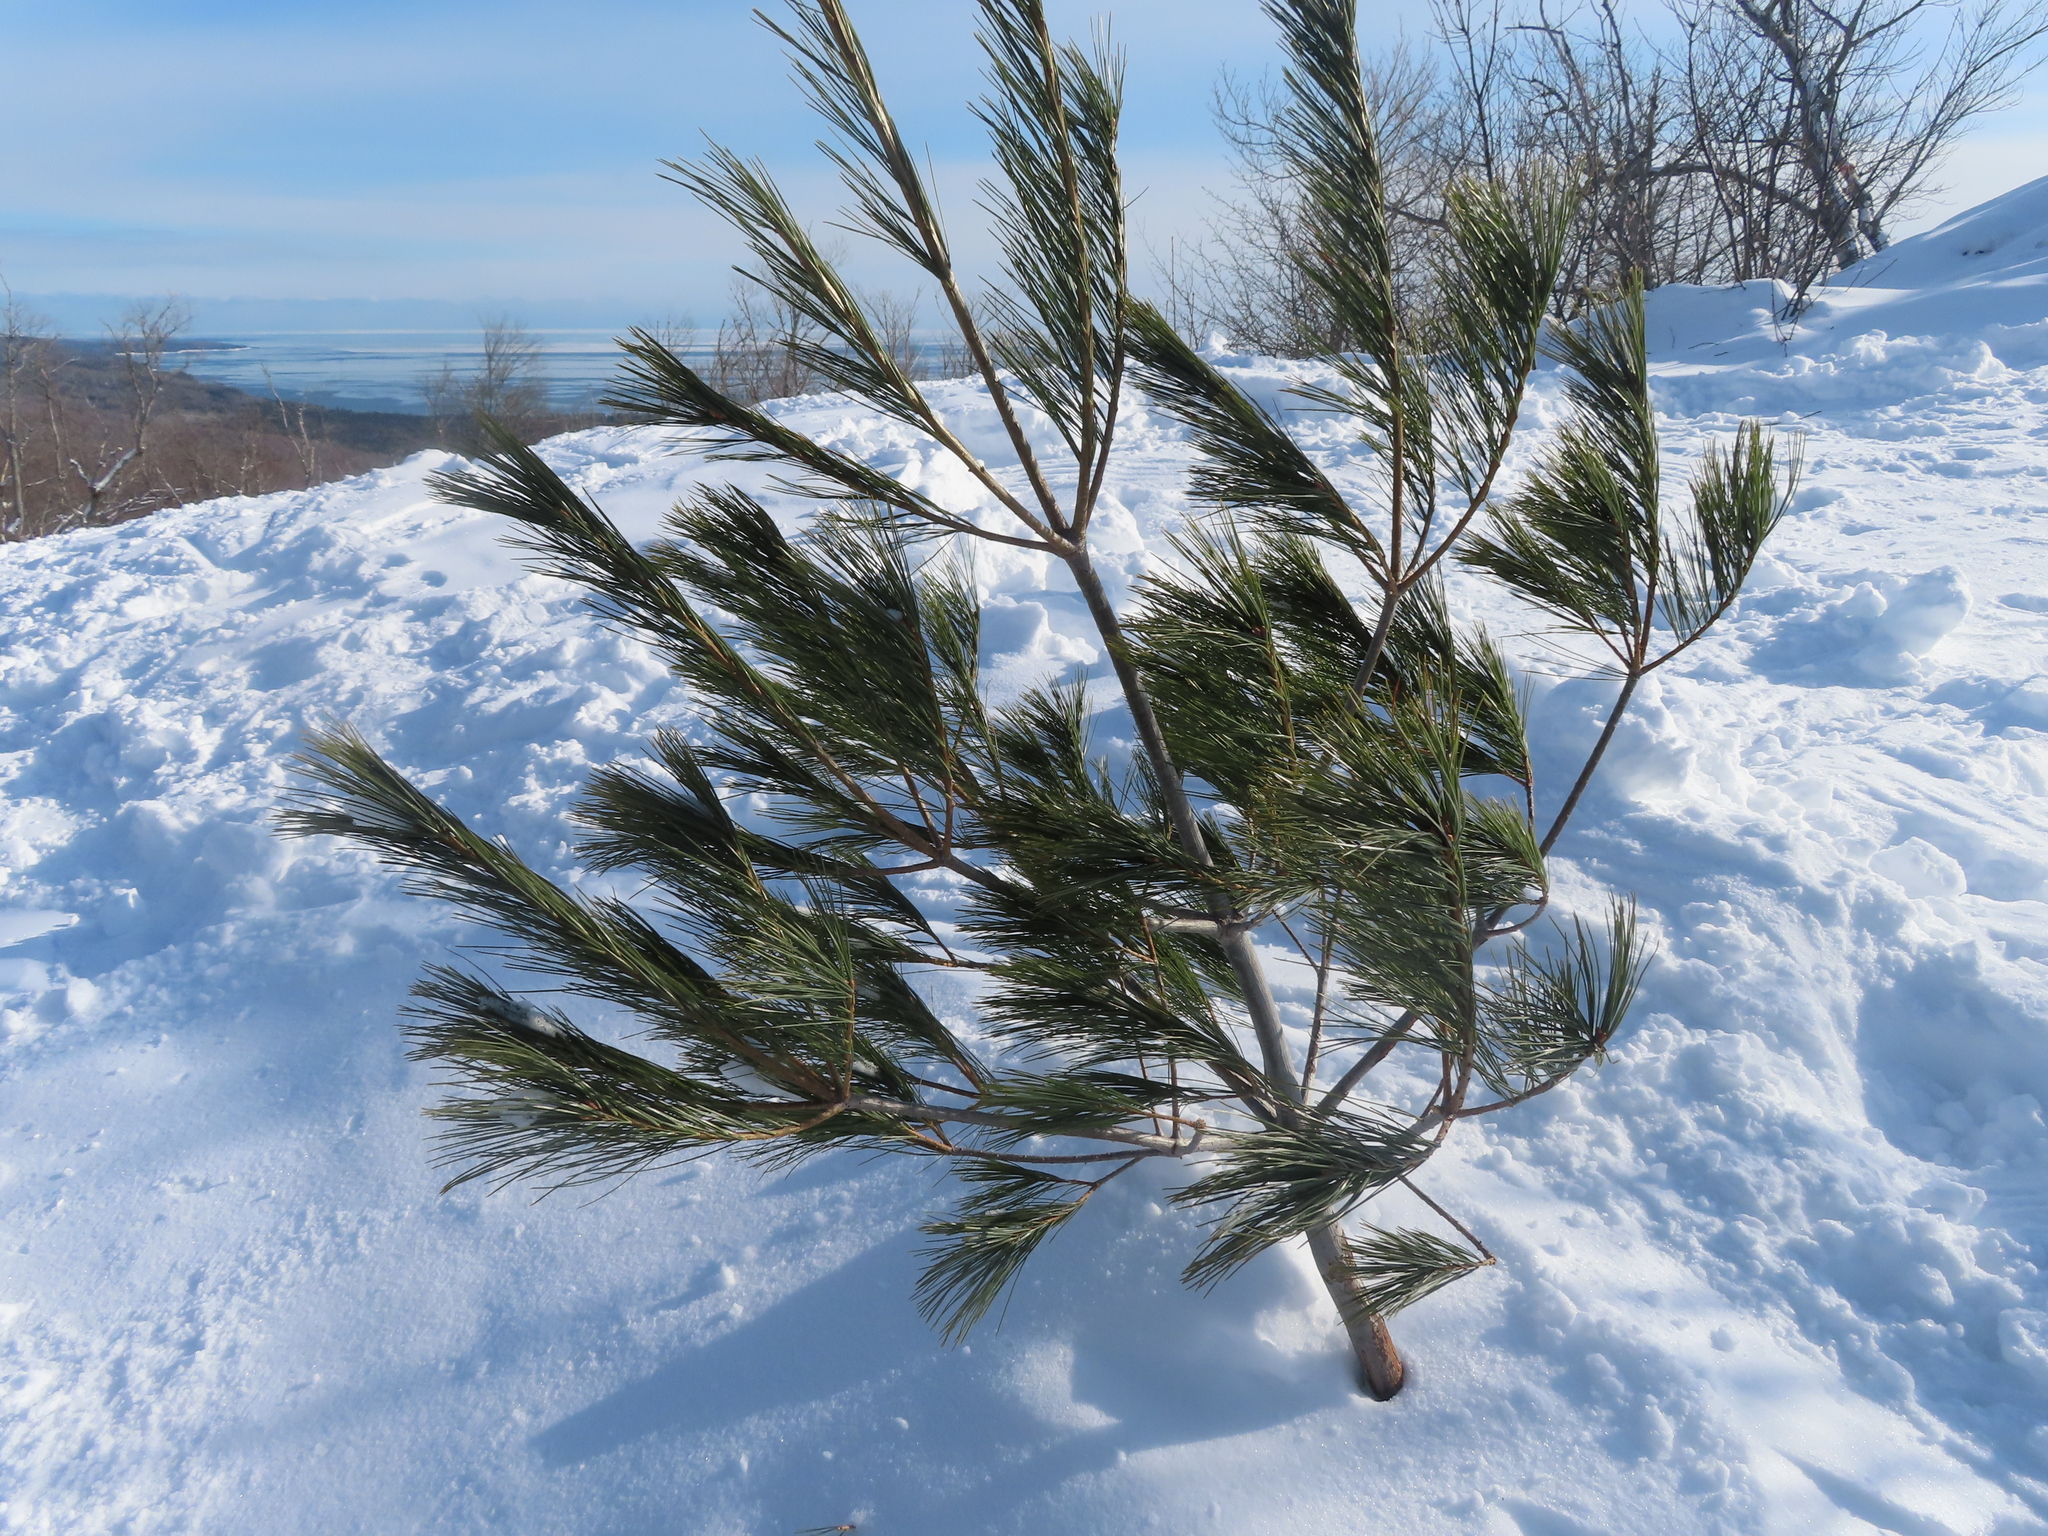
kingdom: Plantae
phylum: Tracheophyta
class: Pinopsida
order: Pinales
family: Pinaceae
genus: Pinus
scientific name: Pinus strobus
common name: Weymouth pine
